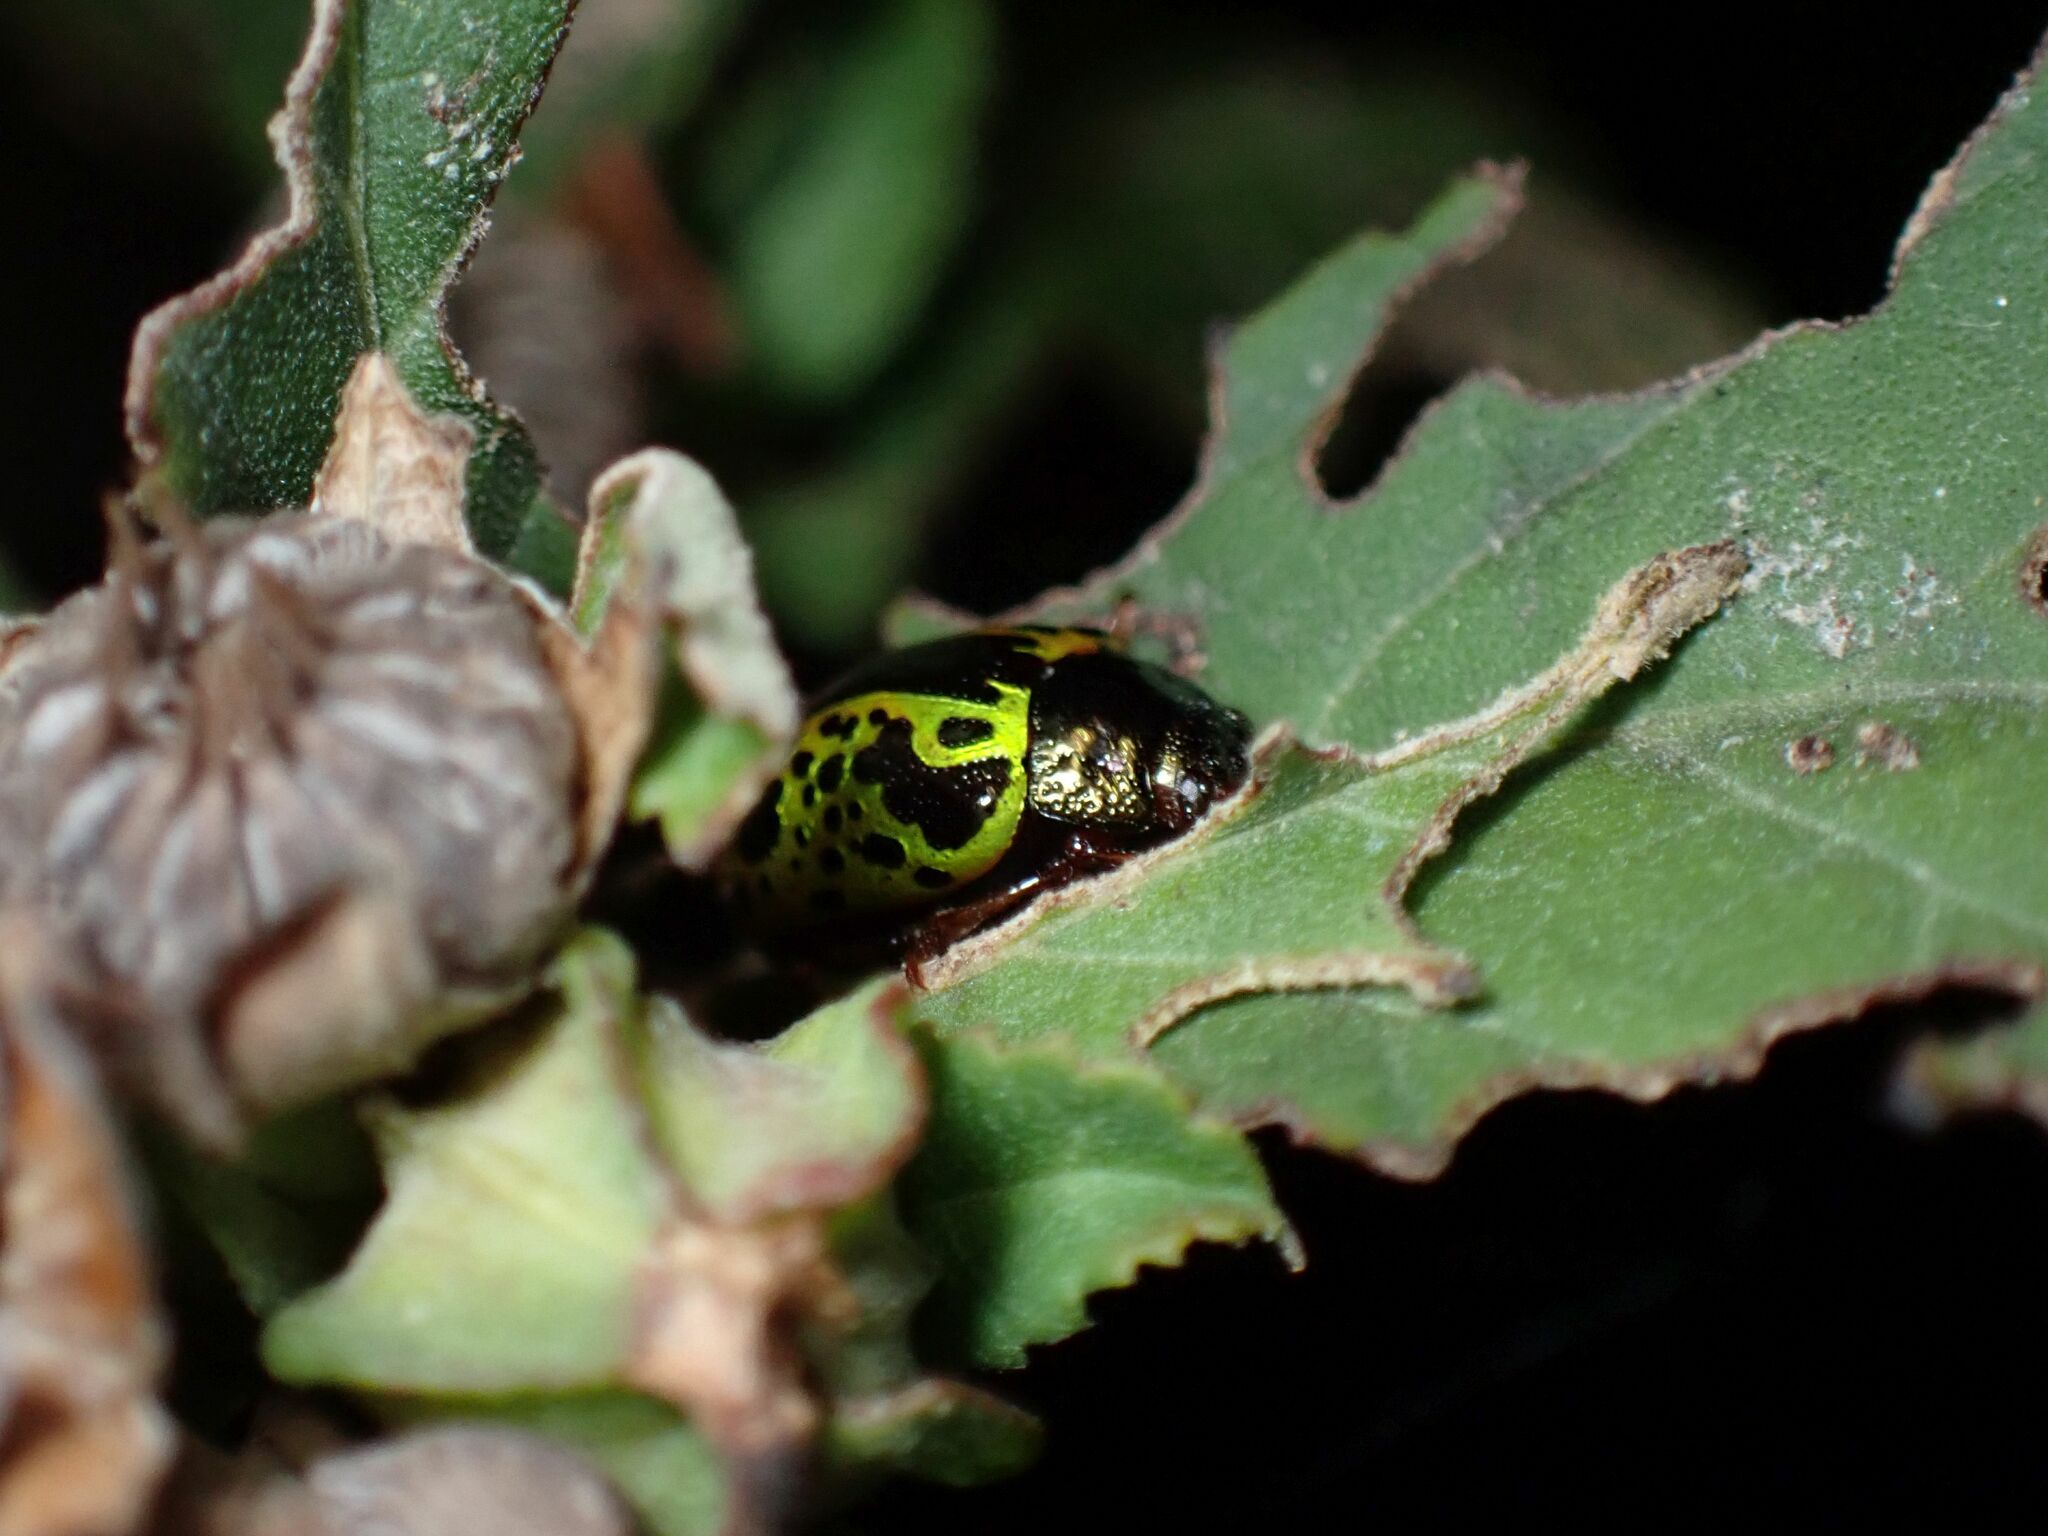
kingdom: Animalia
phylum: Arthropoda
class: Insecta
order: Coleoptera
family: Chrysomelidae
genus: Calligrapha
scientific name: Calligrapha pantherina
